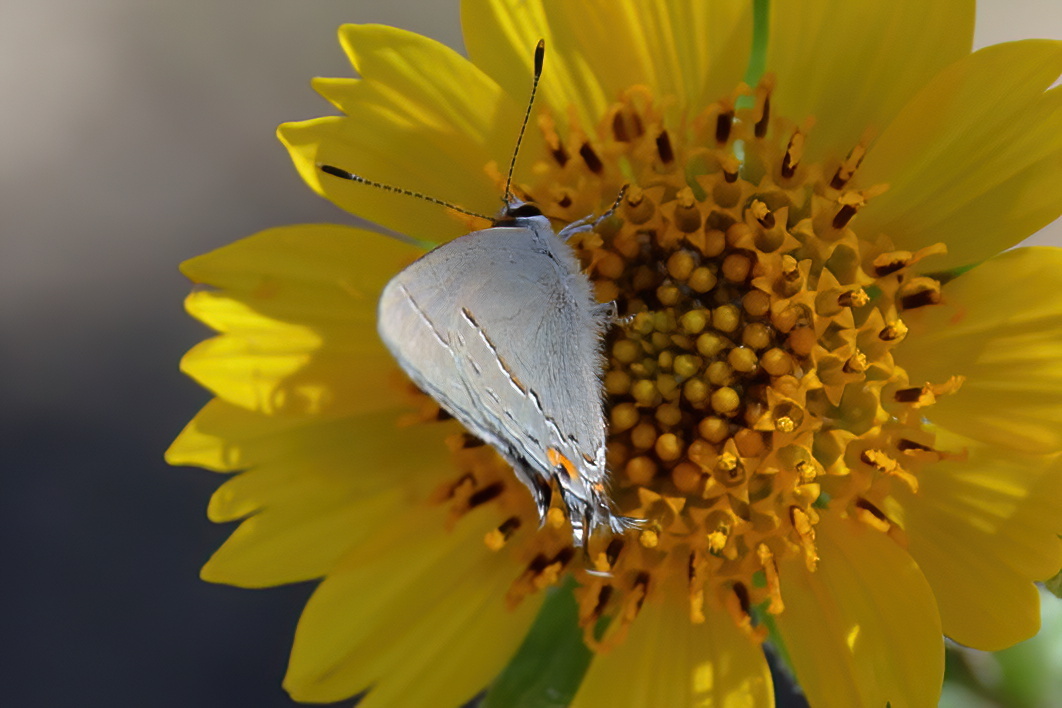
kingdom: Animalia
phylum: Arthropoda
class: Insecta
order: Lepidoptera
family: Lycaenidae
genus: Strymon
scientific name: Strymon melinus
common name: Gray hairstreak
